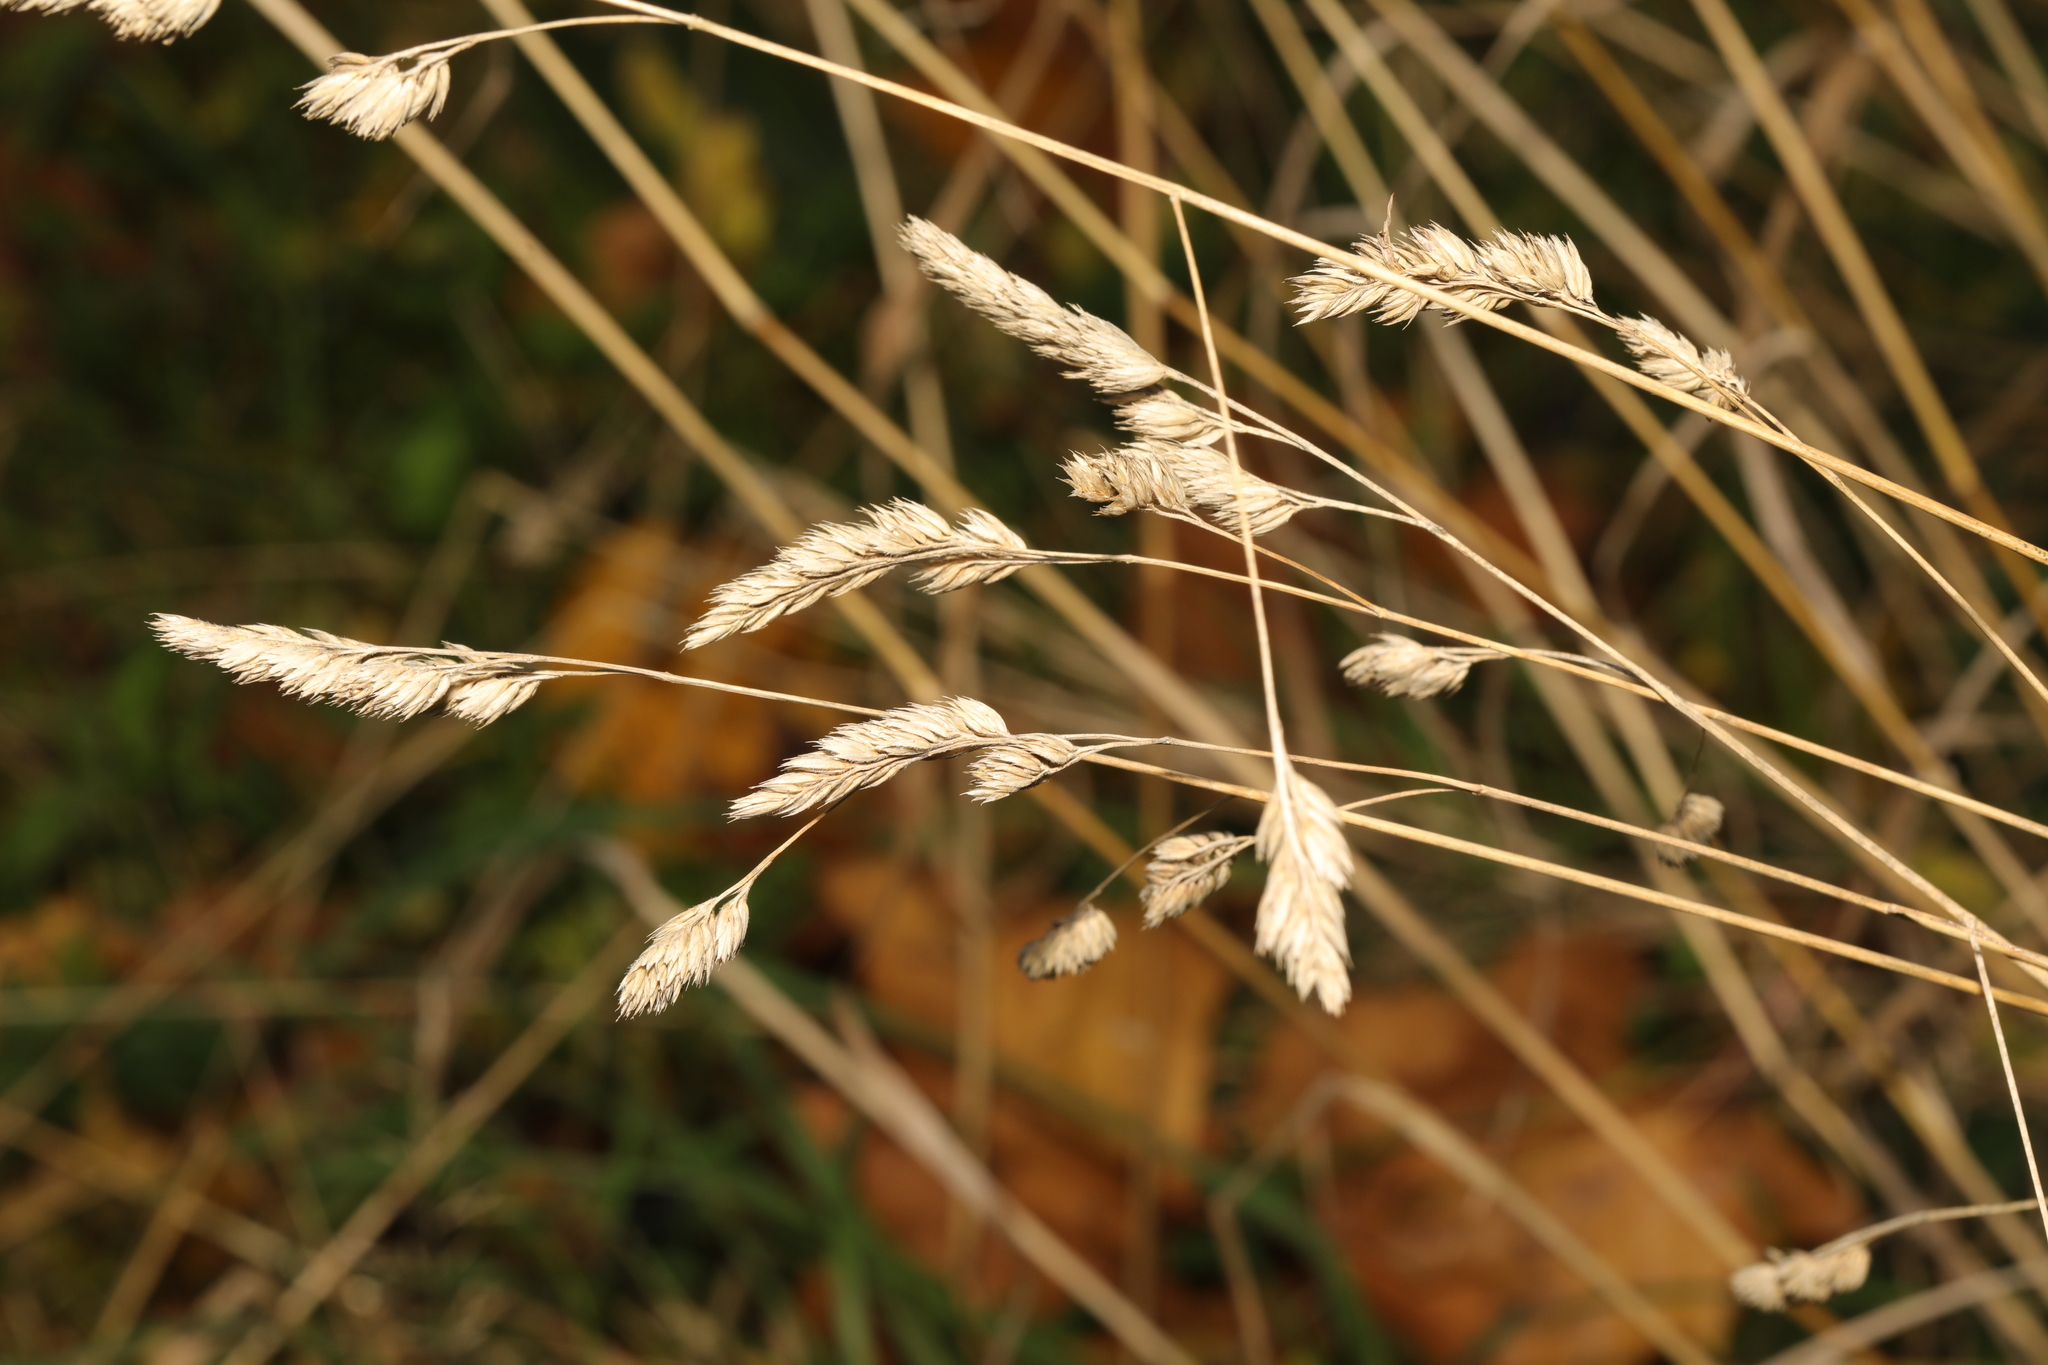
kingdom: Plantae
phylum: Tracheophyta
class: Liliopsida
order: Poales
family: Poaceae
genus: Dactylis
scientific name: Dactylis glomerata
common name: Orchardgrass
